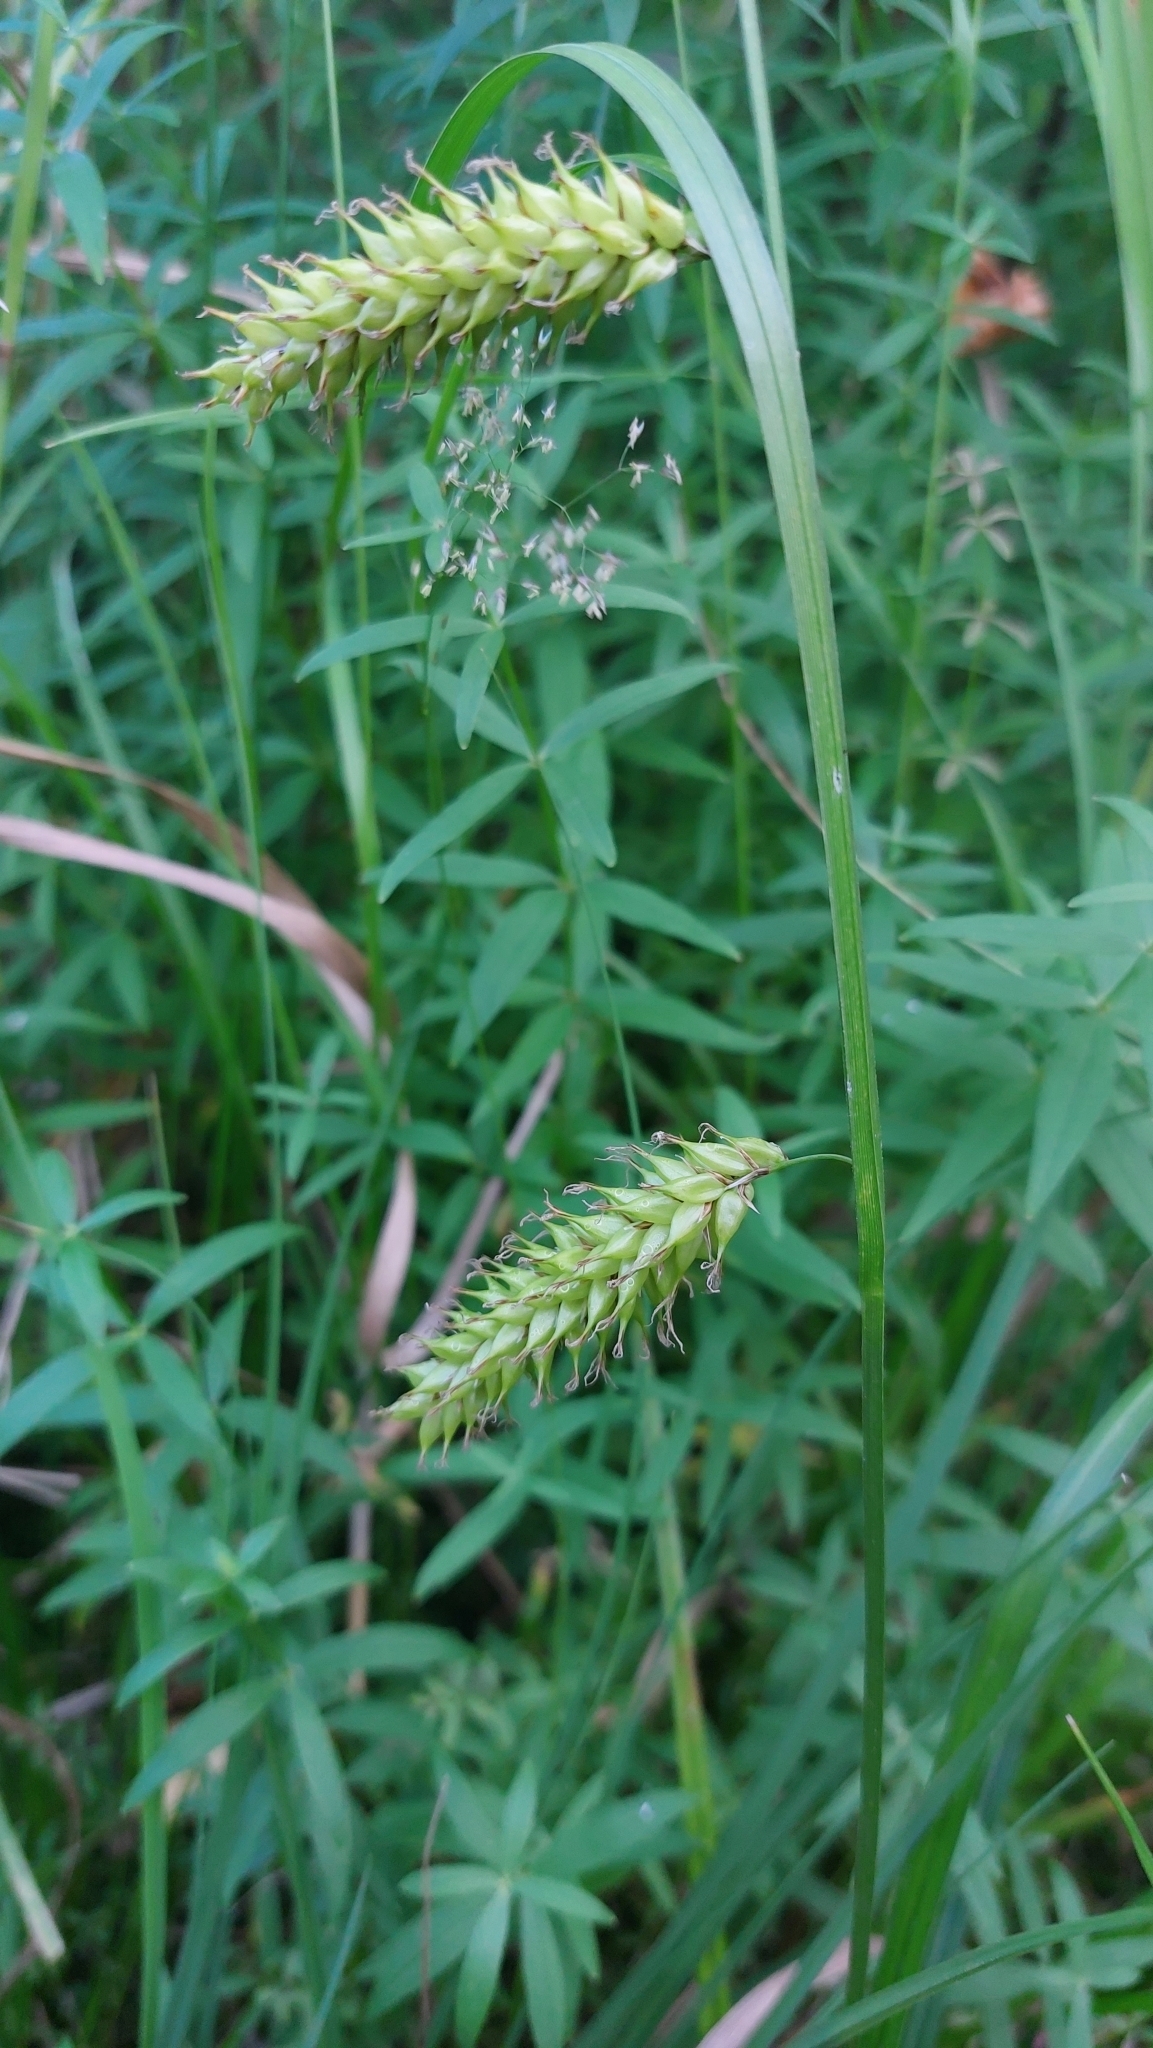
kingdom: Plantae
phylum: Tracheophyta
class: Liliopsida
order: Poales
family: Cyperaceae
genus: Carex
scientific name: Carex vesicaria
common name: Bladder-sedge
